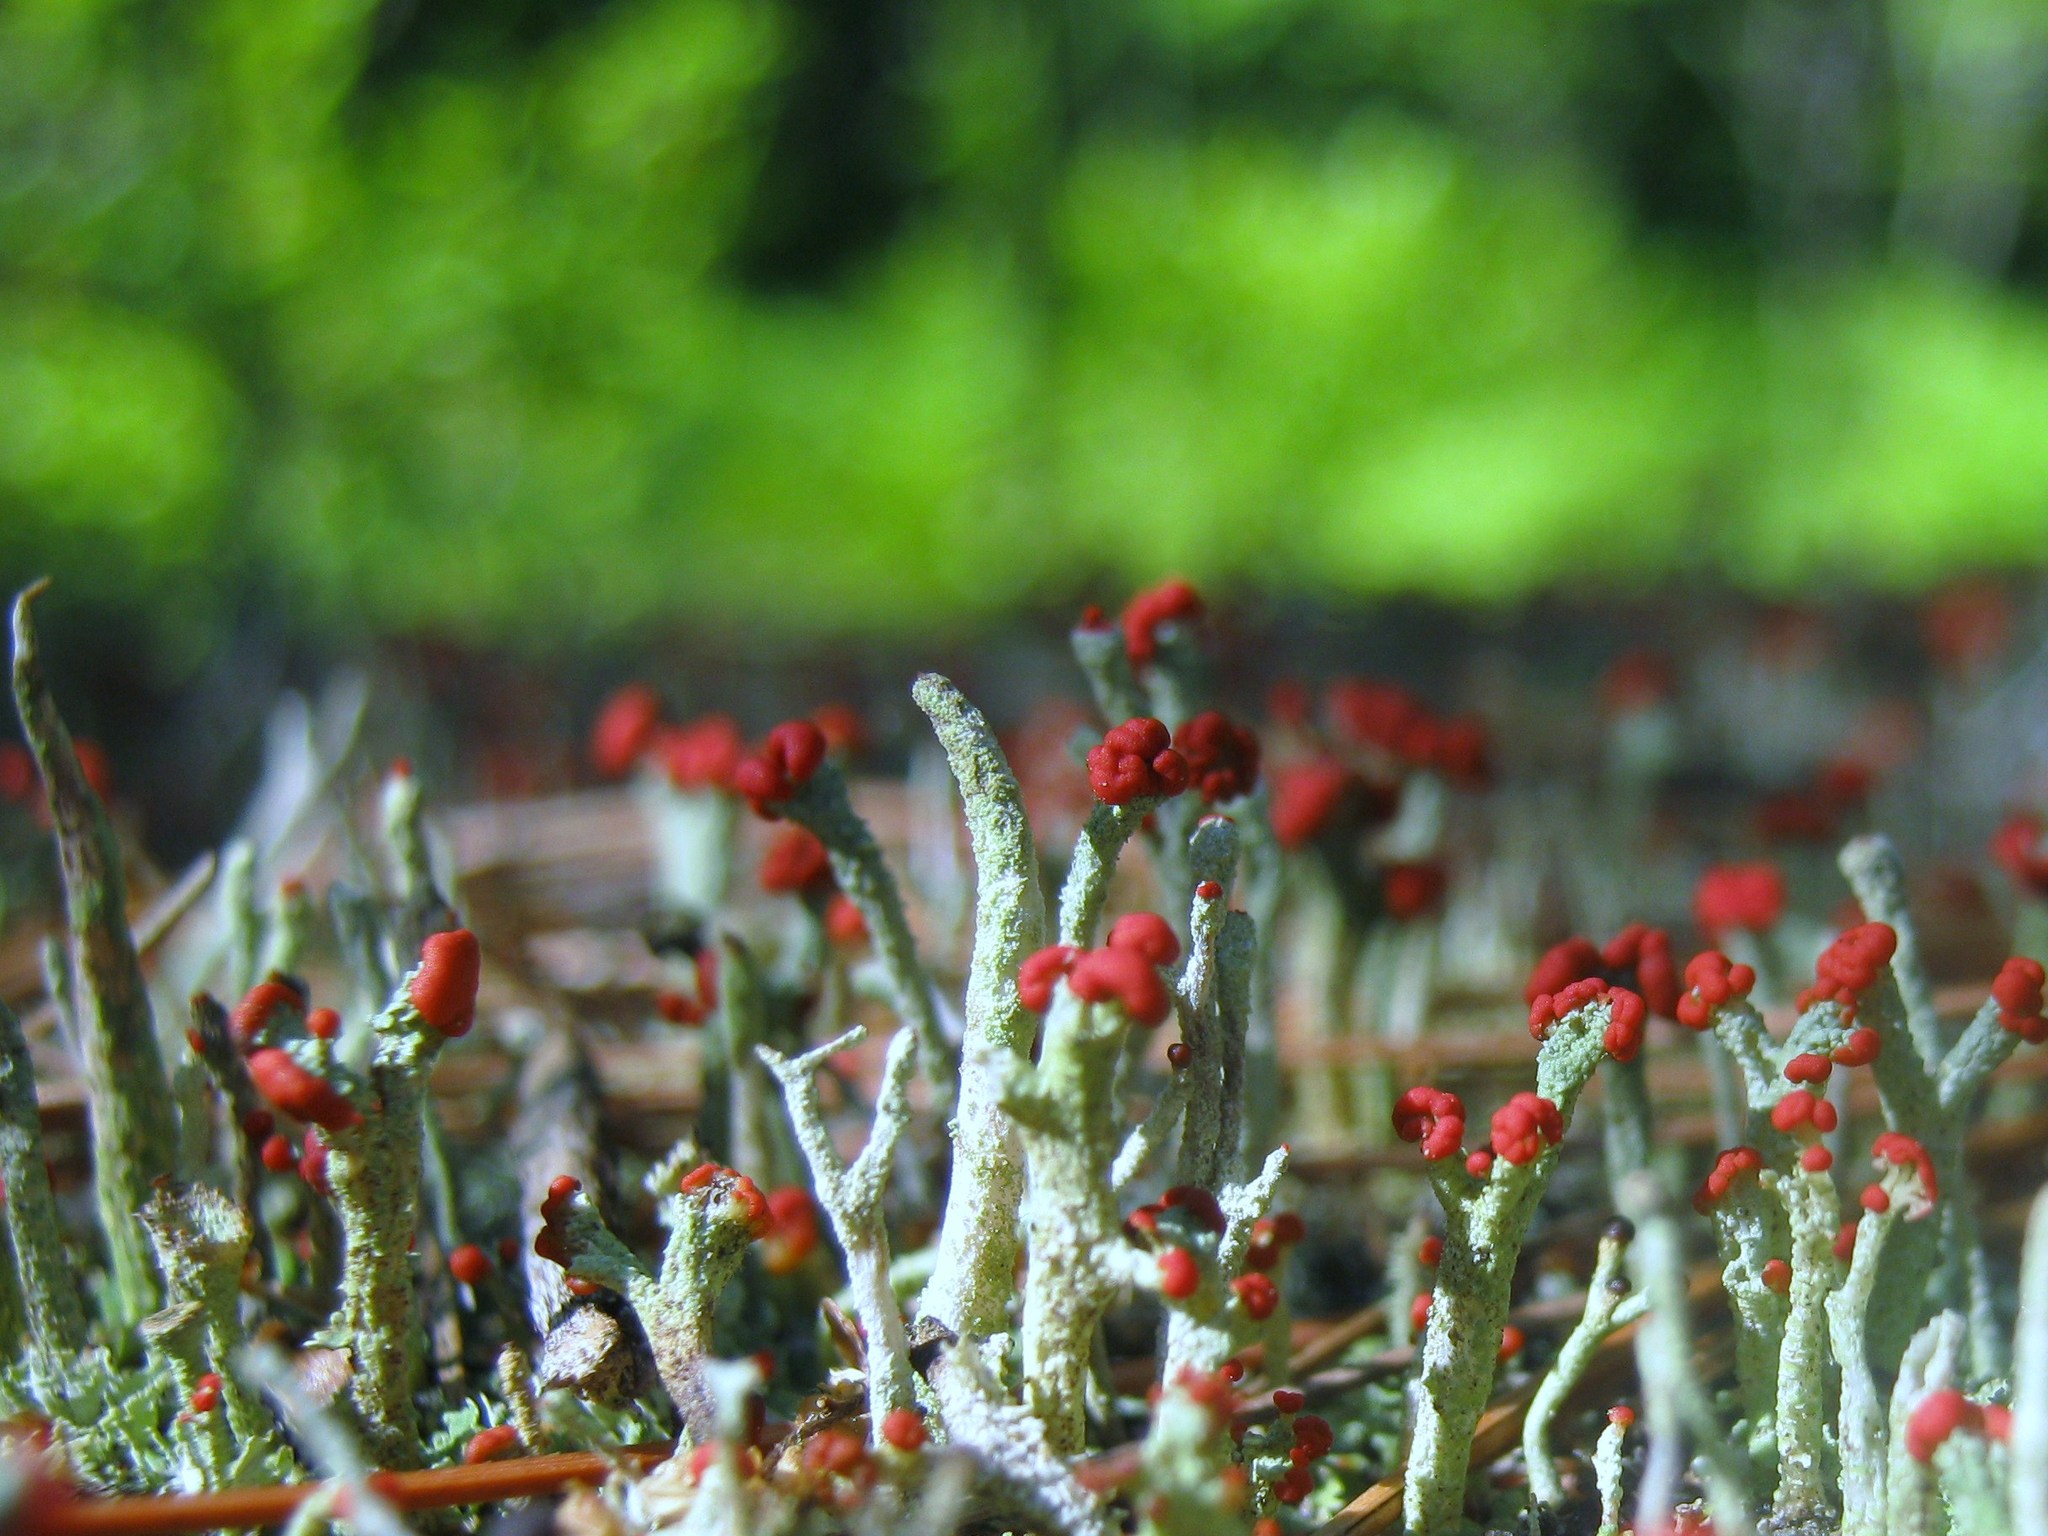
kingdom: Fungi
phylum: Ascomycota
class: Lecanoromycetes
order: Lecanorales
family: Cladoniaceae
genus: Cladonia
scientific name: Cladonia cristatella
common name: British soldier lichen
